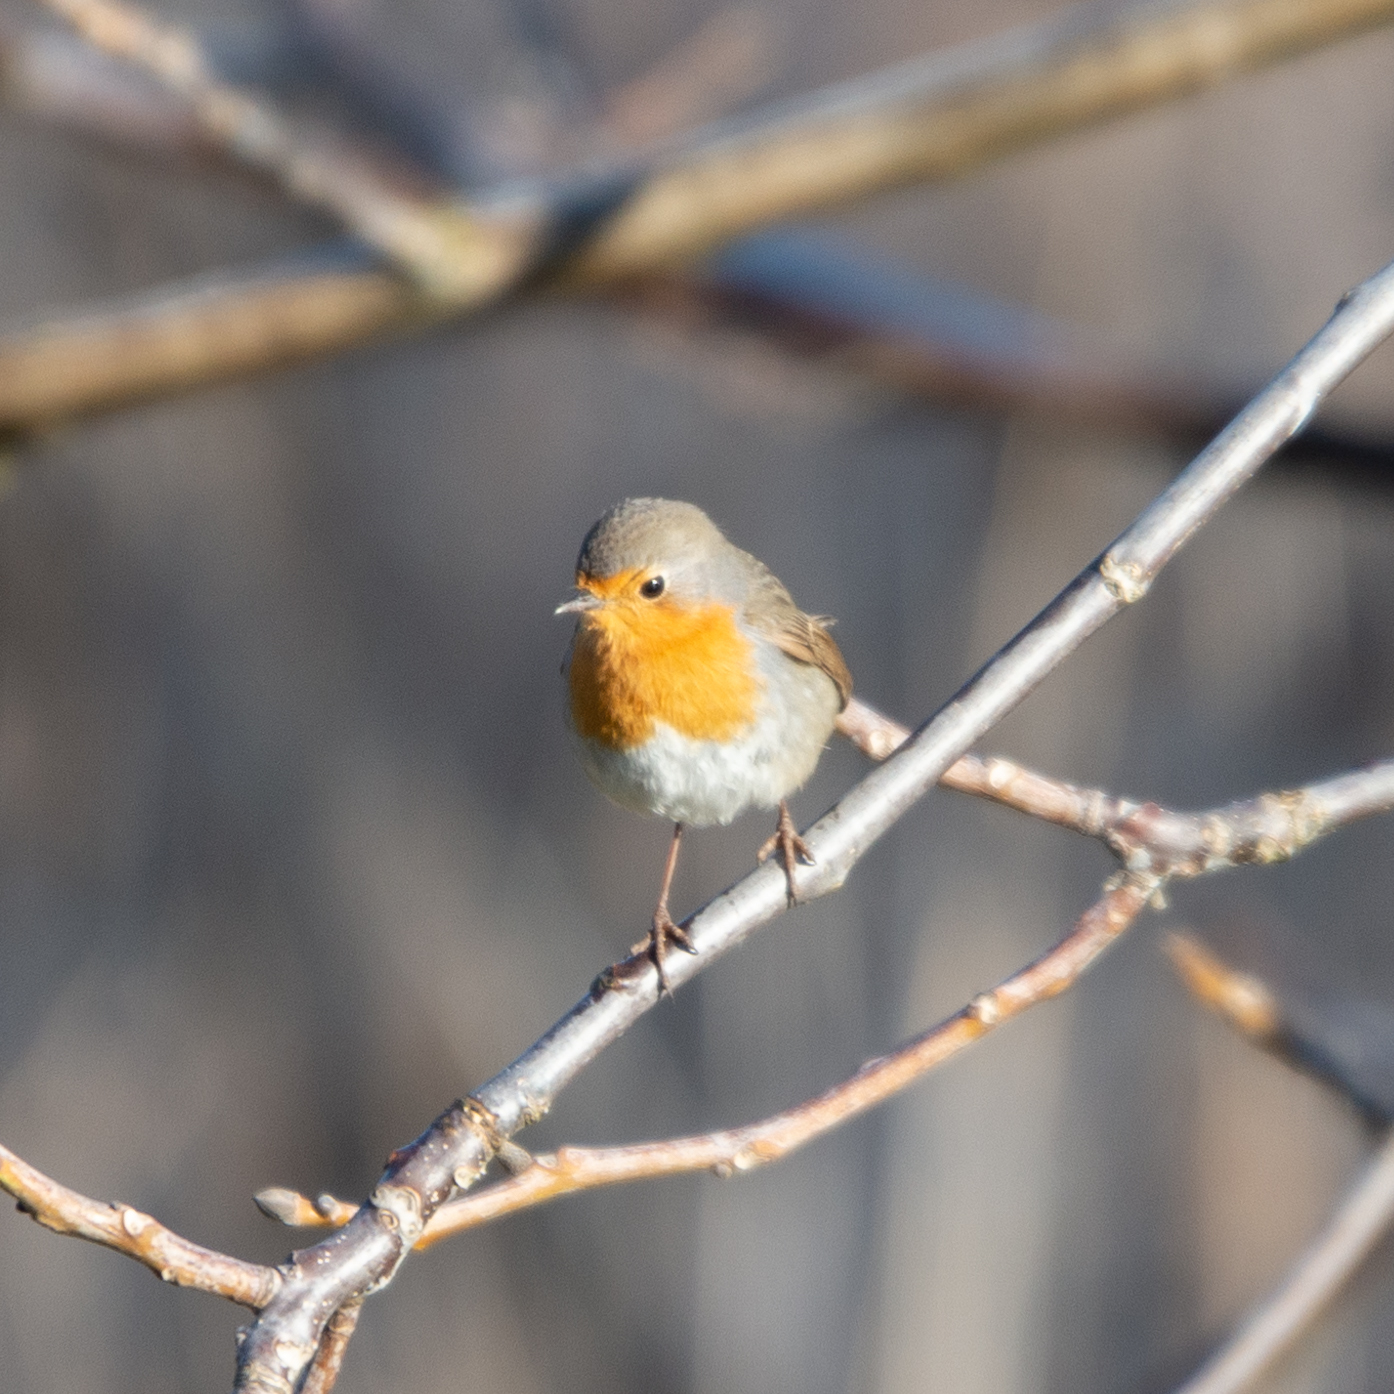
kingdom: Animalia
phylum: Chordata
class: Aves
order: Passeriformes
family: Muscicapidae
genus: Erithacus
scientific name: Erithacus rubecula
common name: European robin
